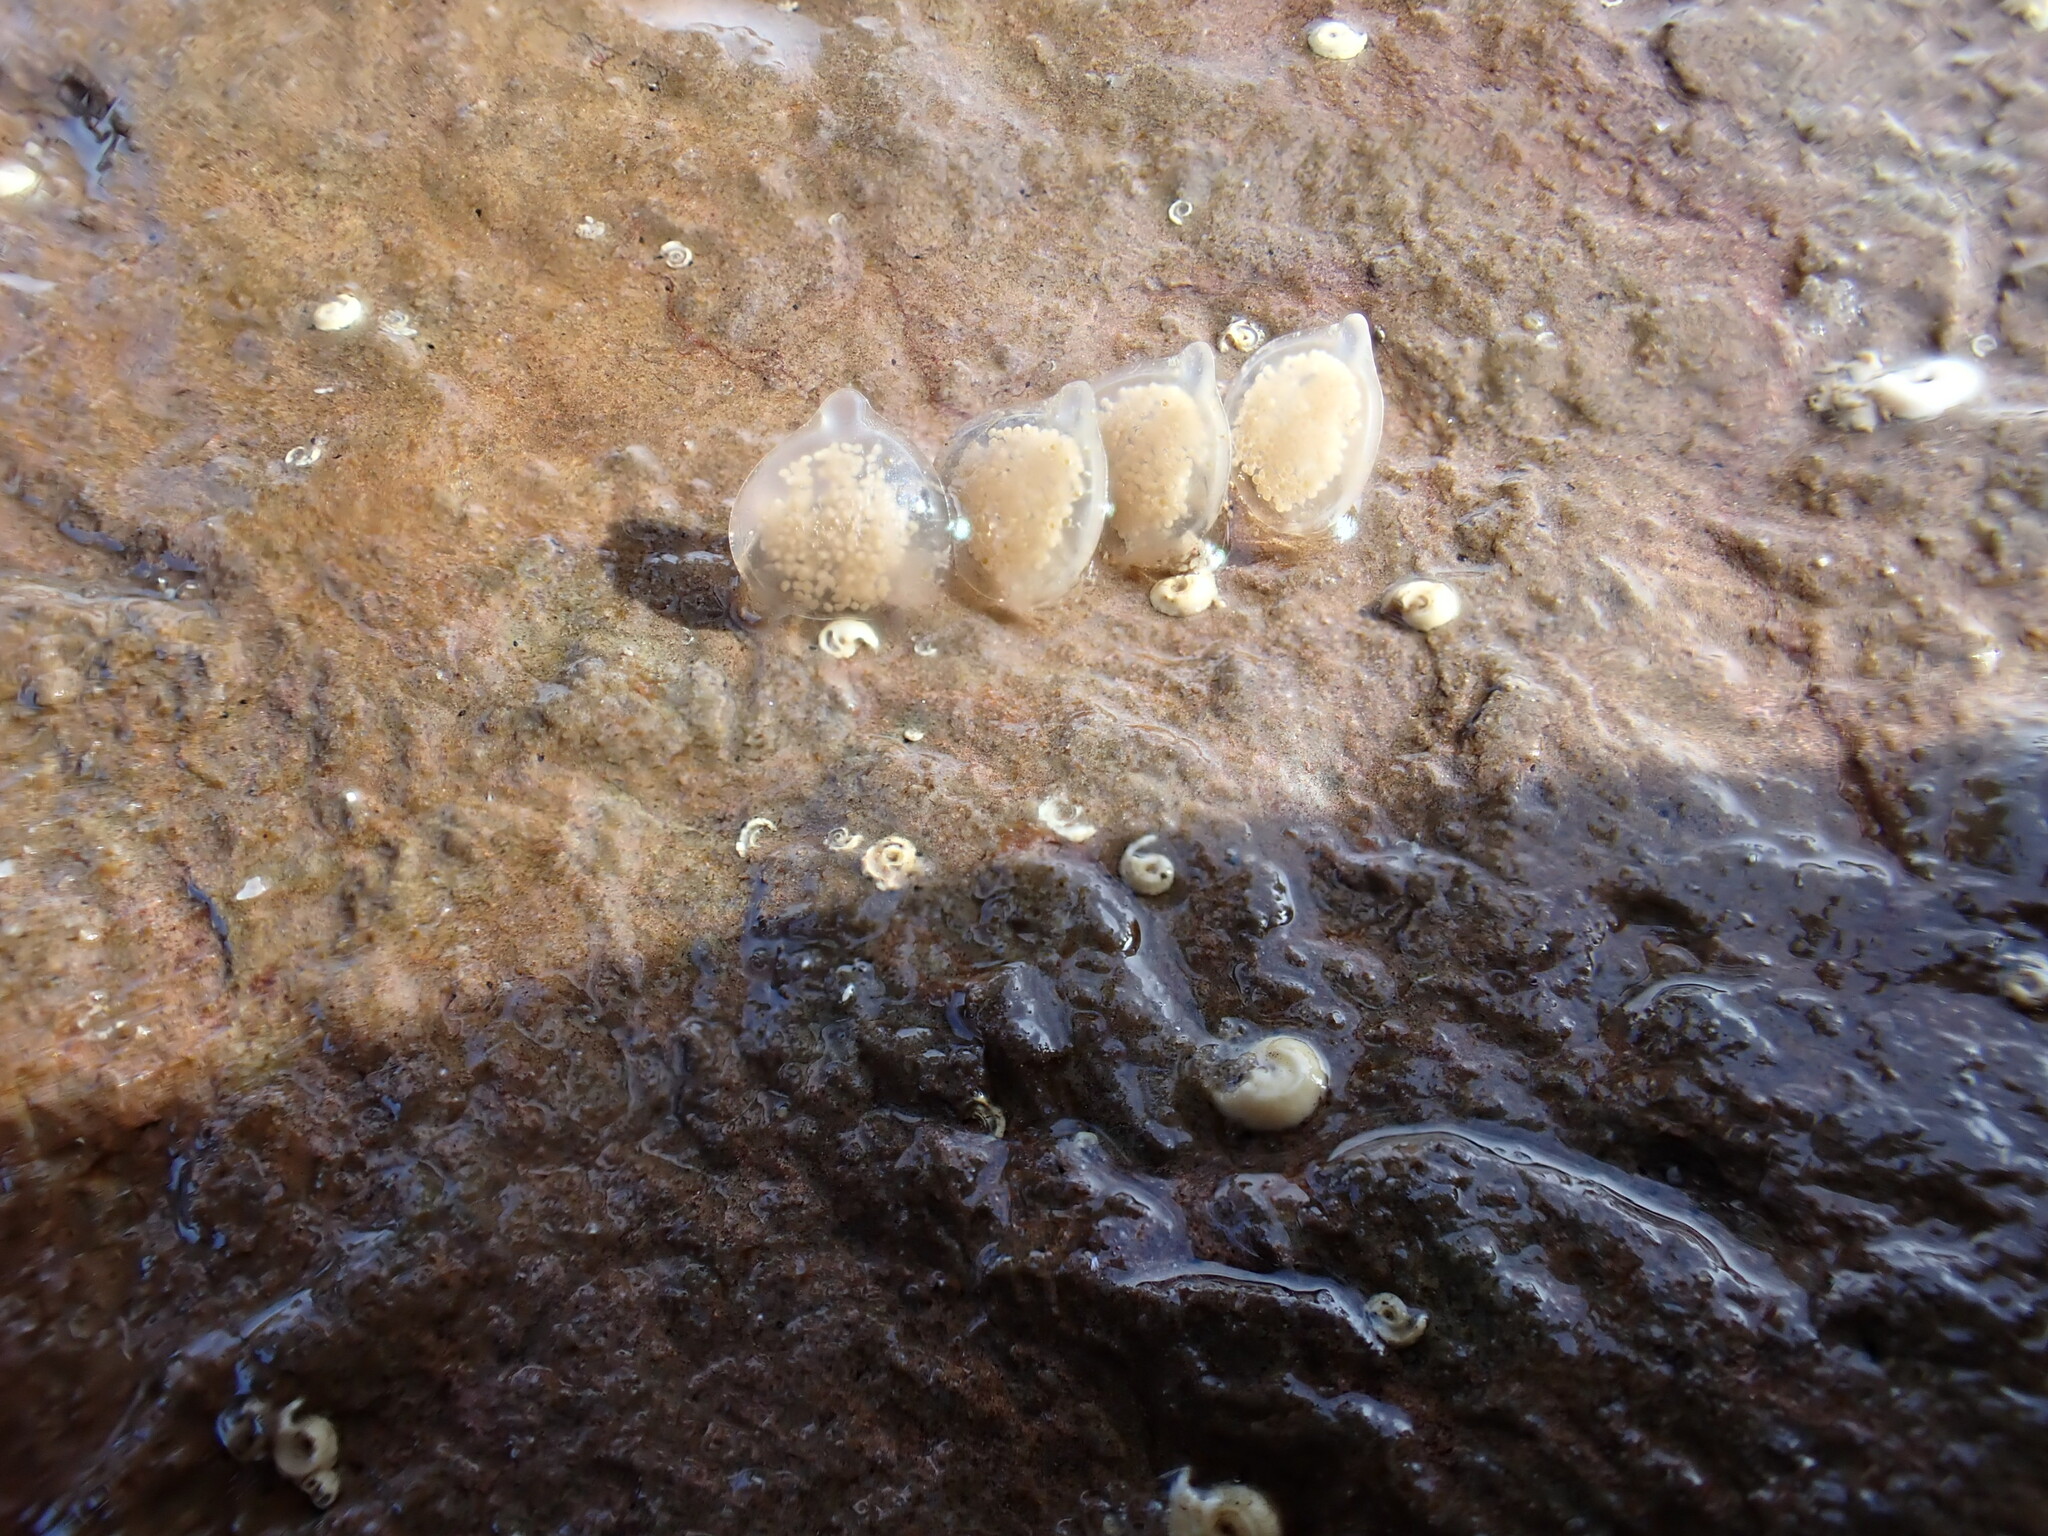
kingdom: Animalia
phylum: Mollusca
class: Gastropoda
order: Neogastropoda
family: Nassariidae
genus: Tritia
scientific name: Tritia reticulata
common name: Netted dog whelk
